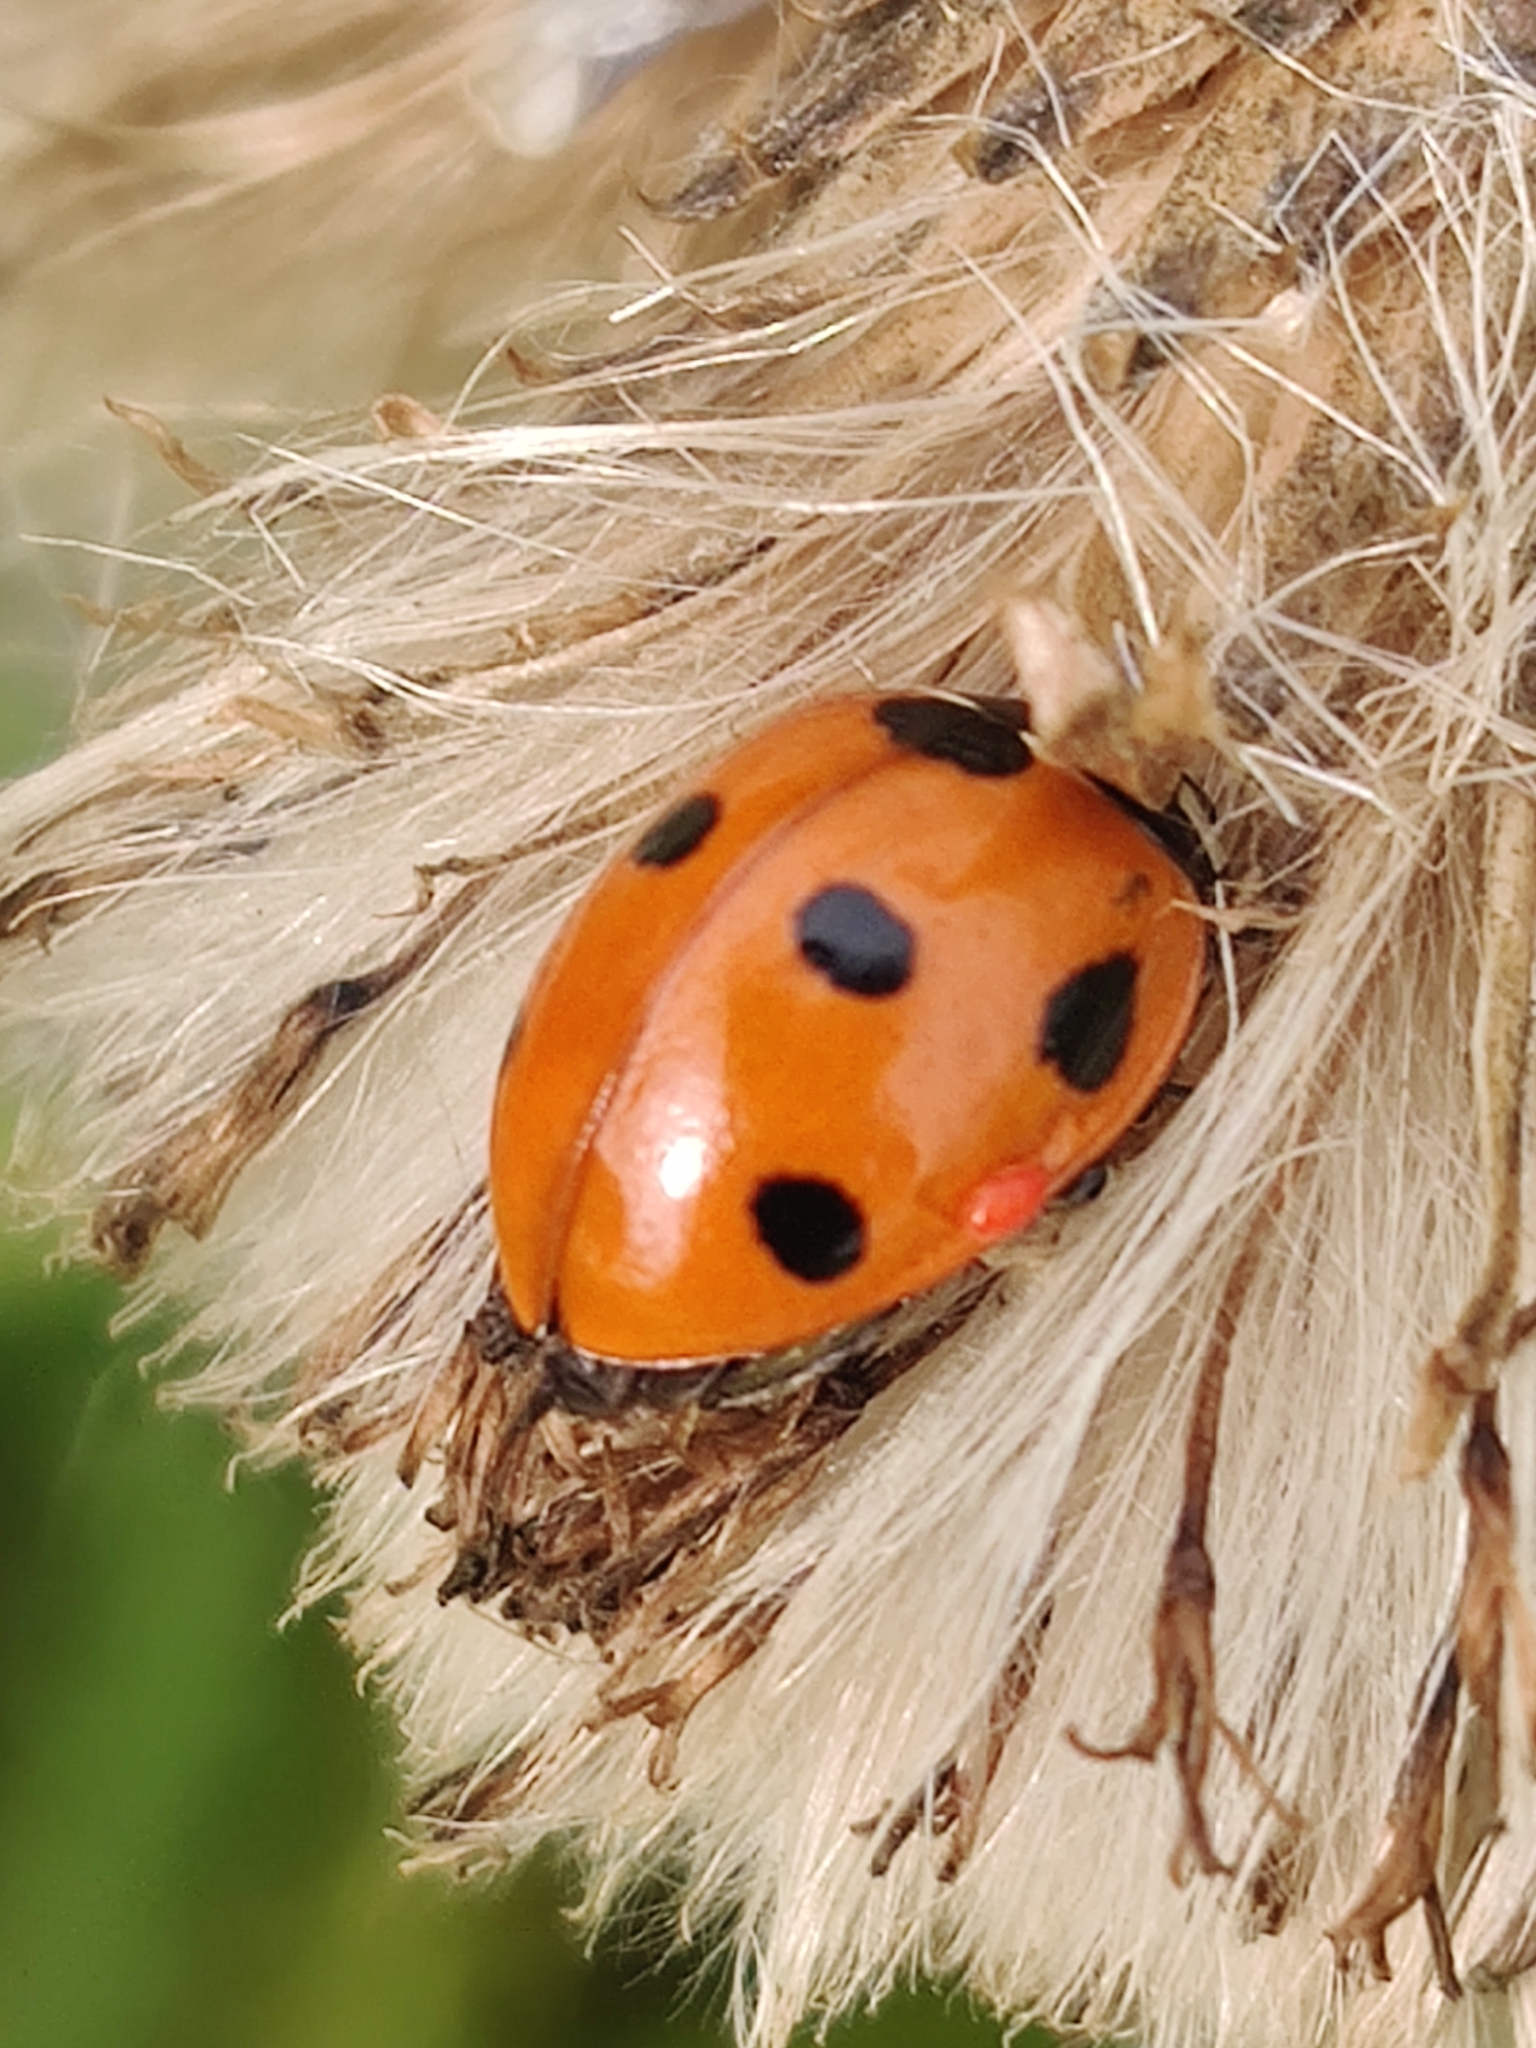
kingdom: Animalia
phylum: Arthropoda
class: Insecta
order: Coleoptera
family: Coccinellidae
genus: Coccinella
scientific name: Coccinella septempunctata
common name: Sevenspotted lady beetle
